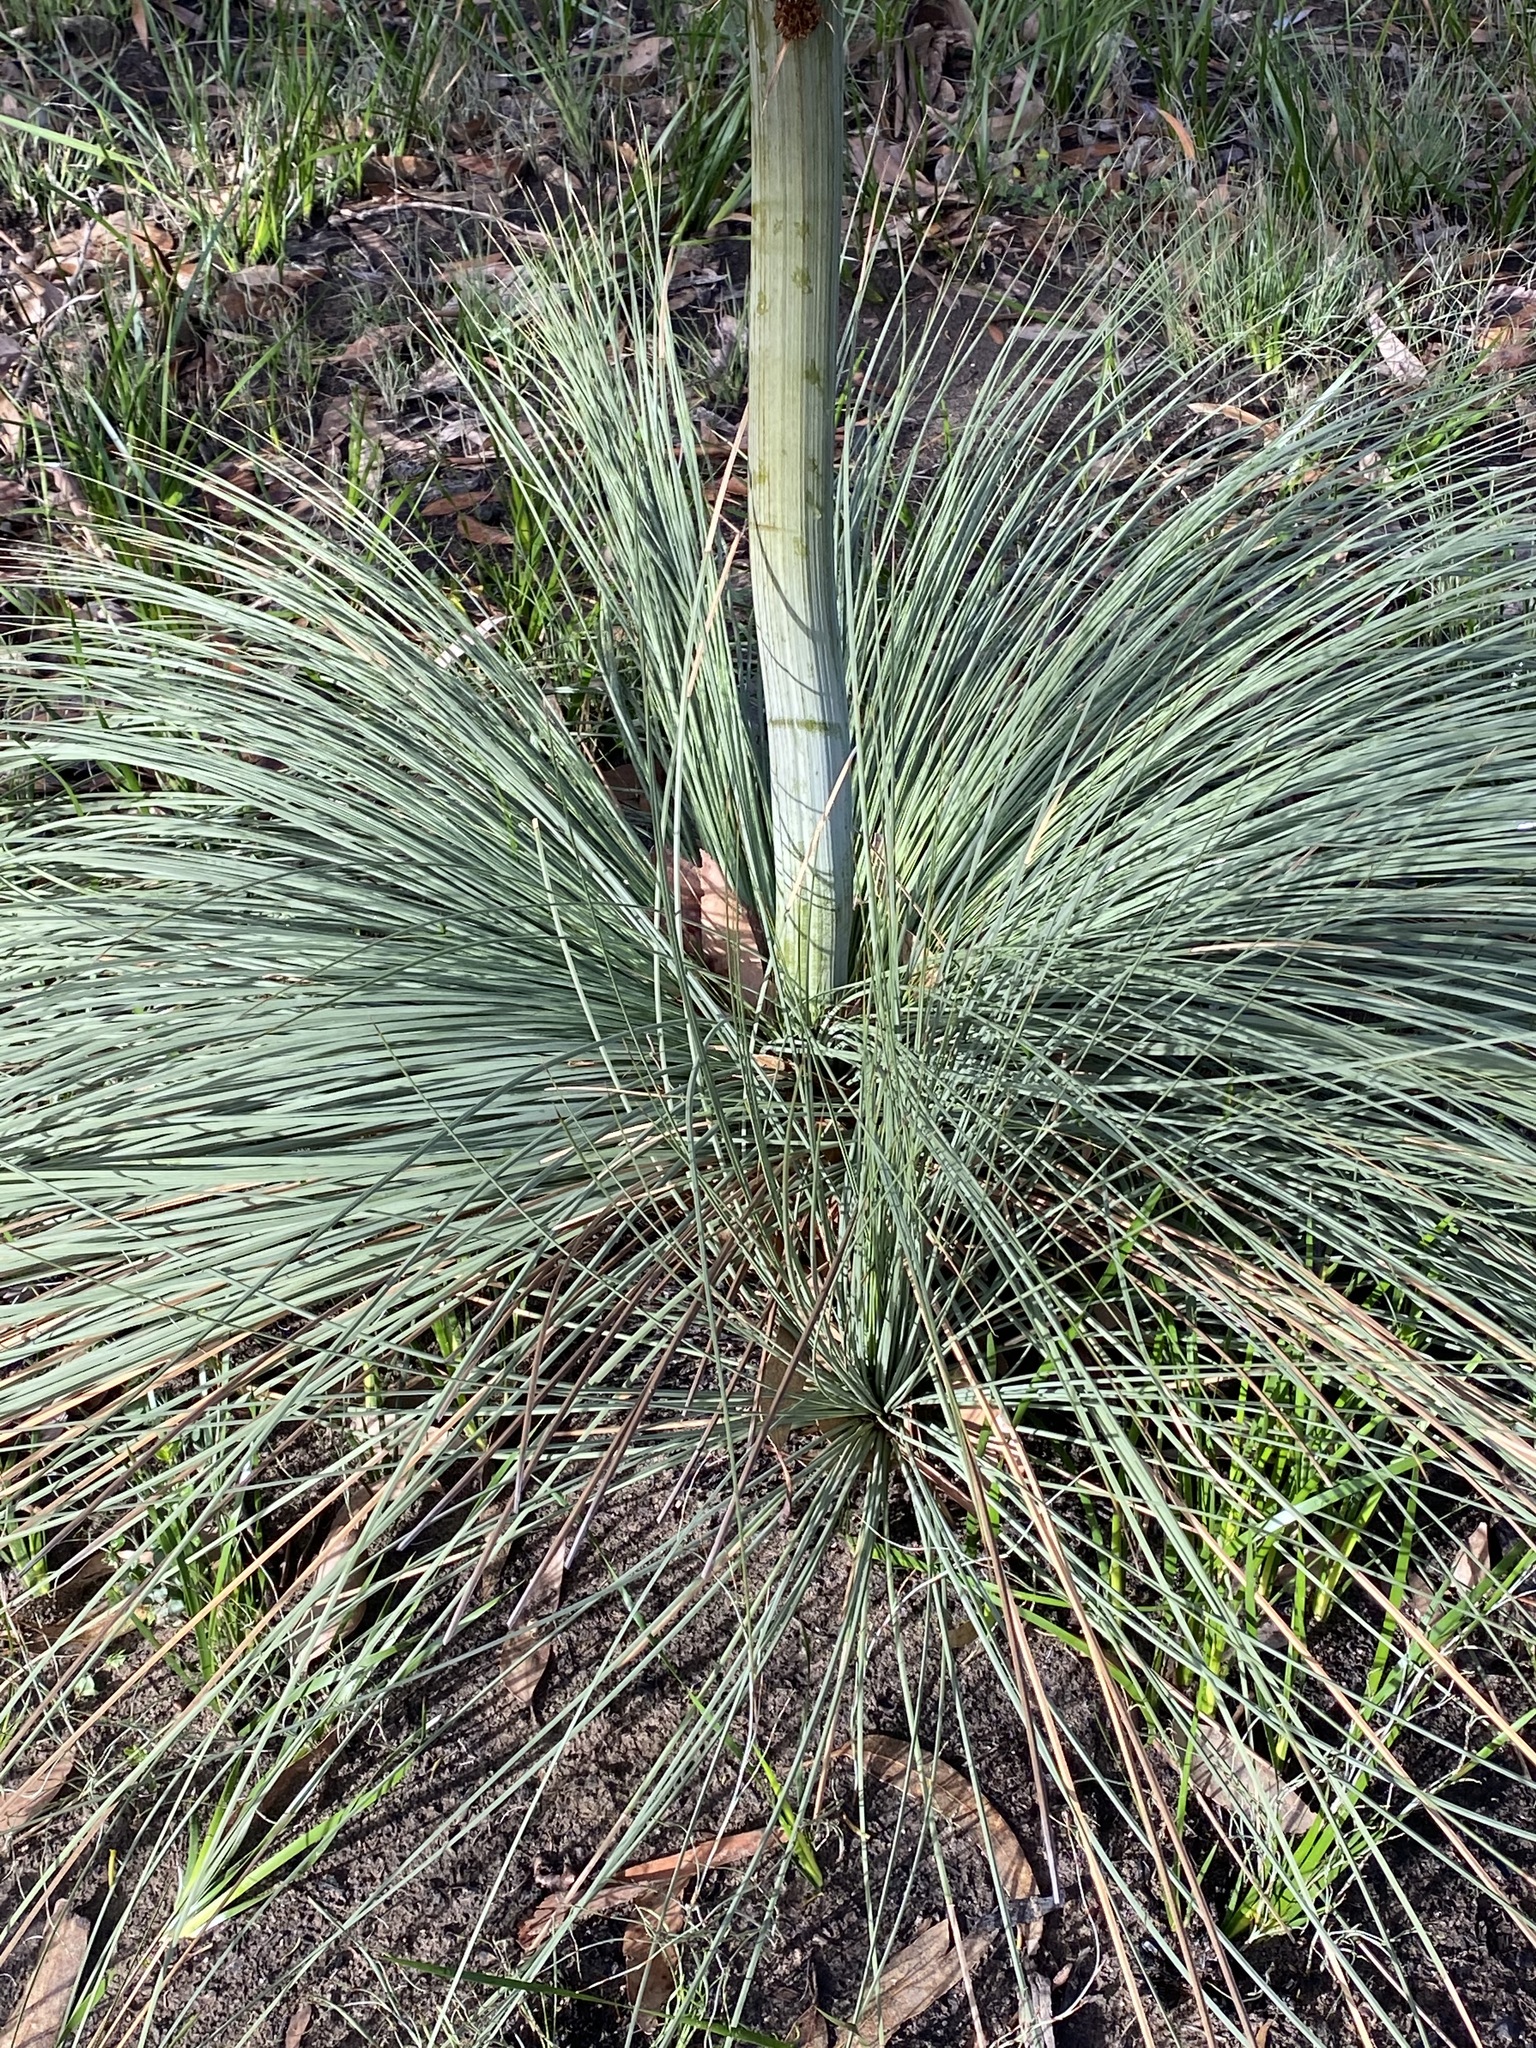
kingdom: Plantae
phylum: Tracheophyta
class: Liliopsida
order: Asparagales
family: Asphodelaceae
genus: Xanthorrhoea
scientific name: Xanthorrhoea australis
